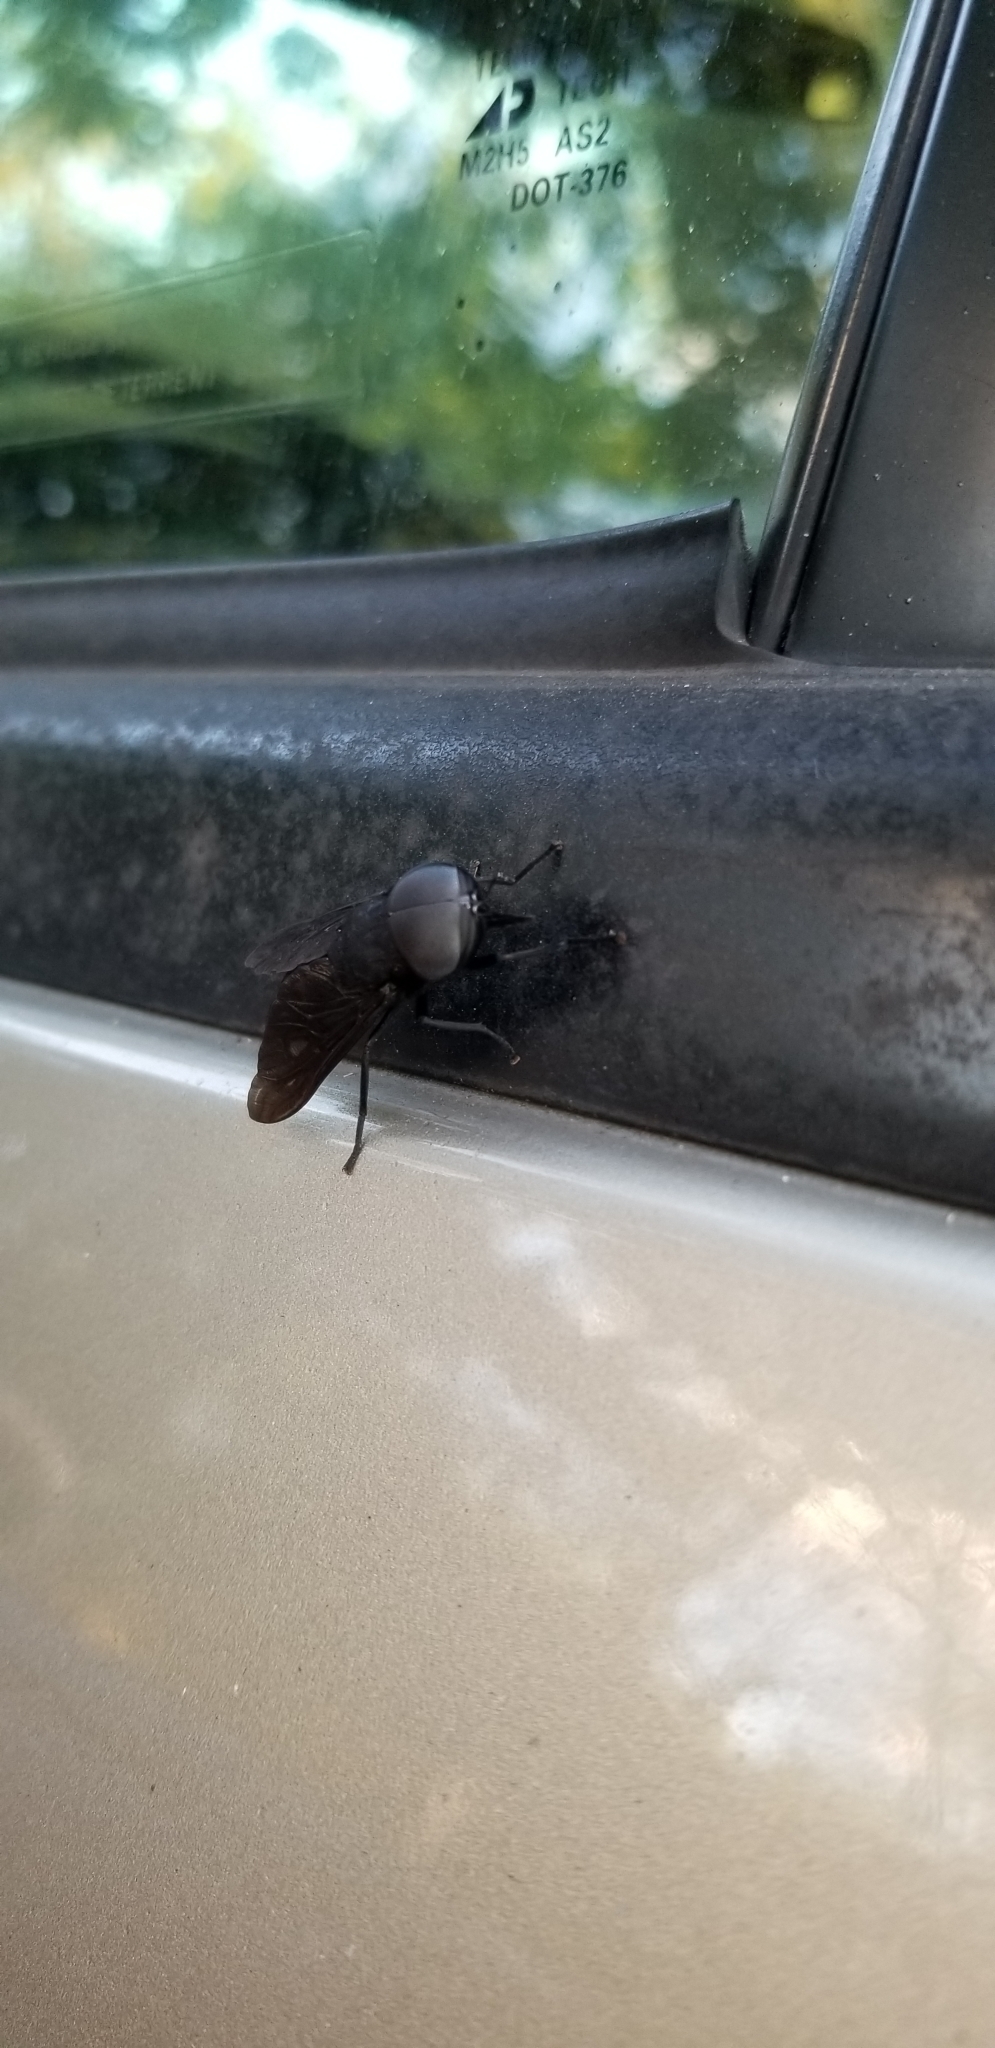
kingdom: Animalia
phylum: Arthropoda
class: Insecta
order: Diptera
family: Tabanidae
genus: Tabanus
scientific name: Tabanus atratus
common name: Black horse fly
